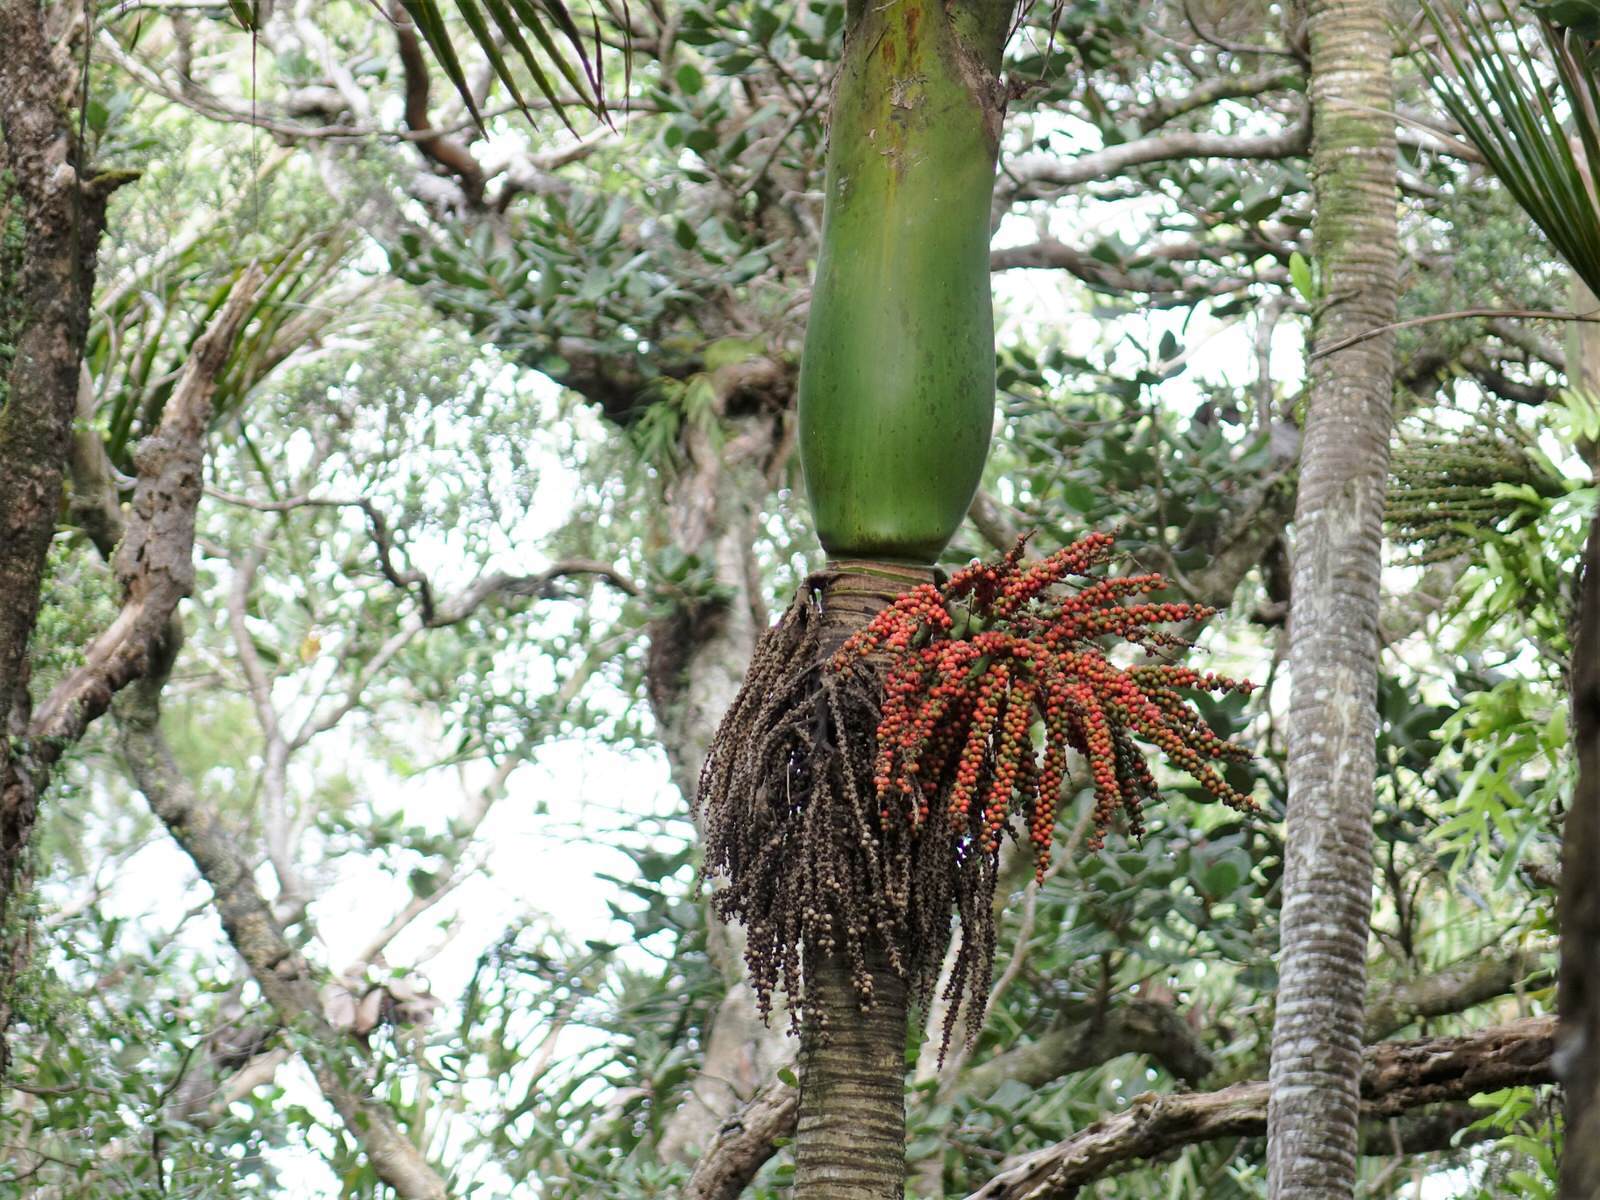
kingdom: Plantae
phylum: Tracheophyta
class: Liliopsida
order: Arecales
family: Arecaceae
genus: Rhopalostylis
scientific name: Rhopalostylis sapida
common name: Feather-duster palm
